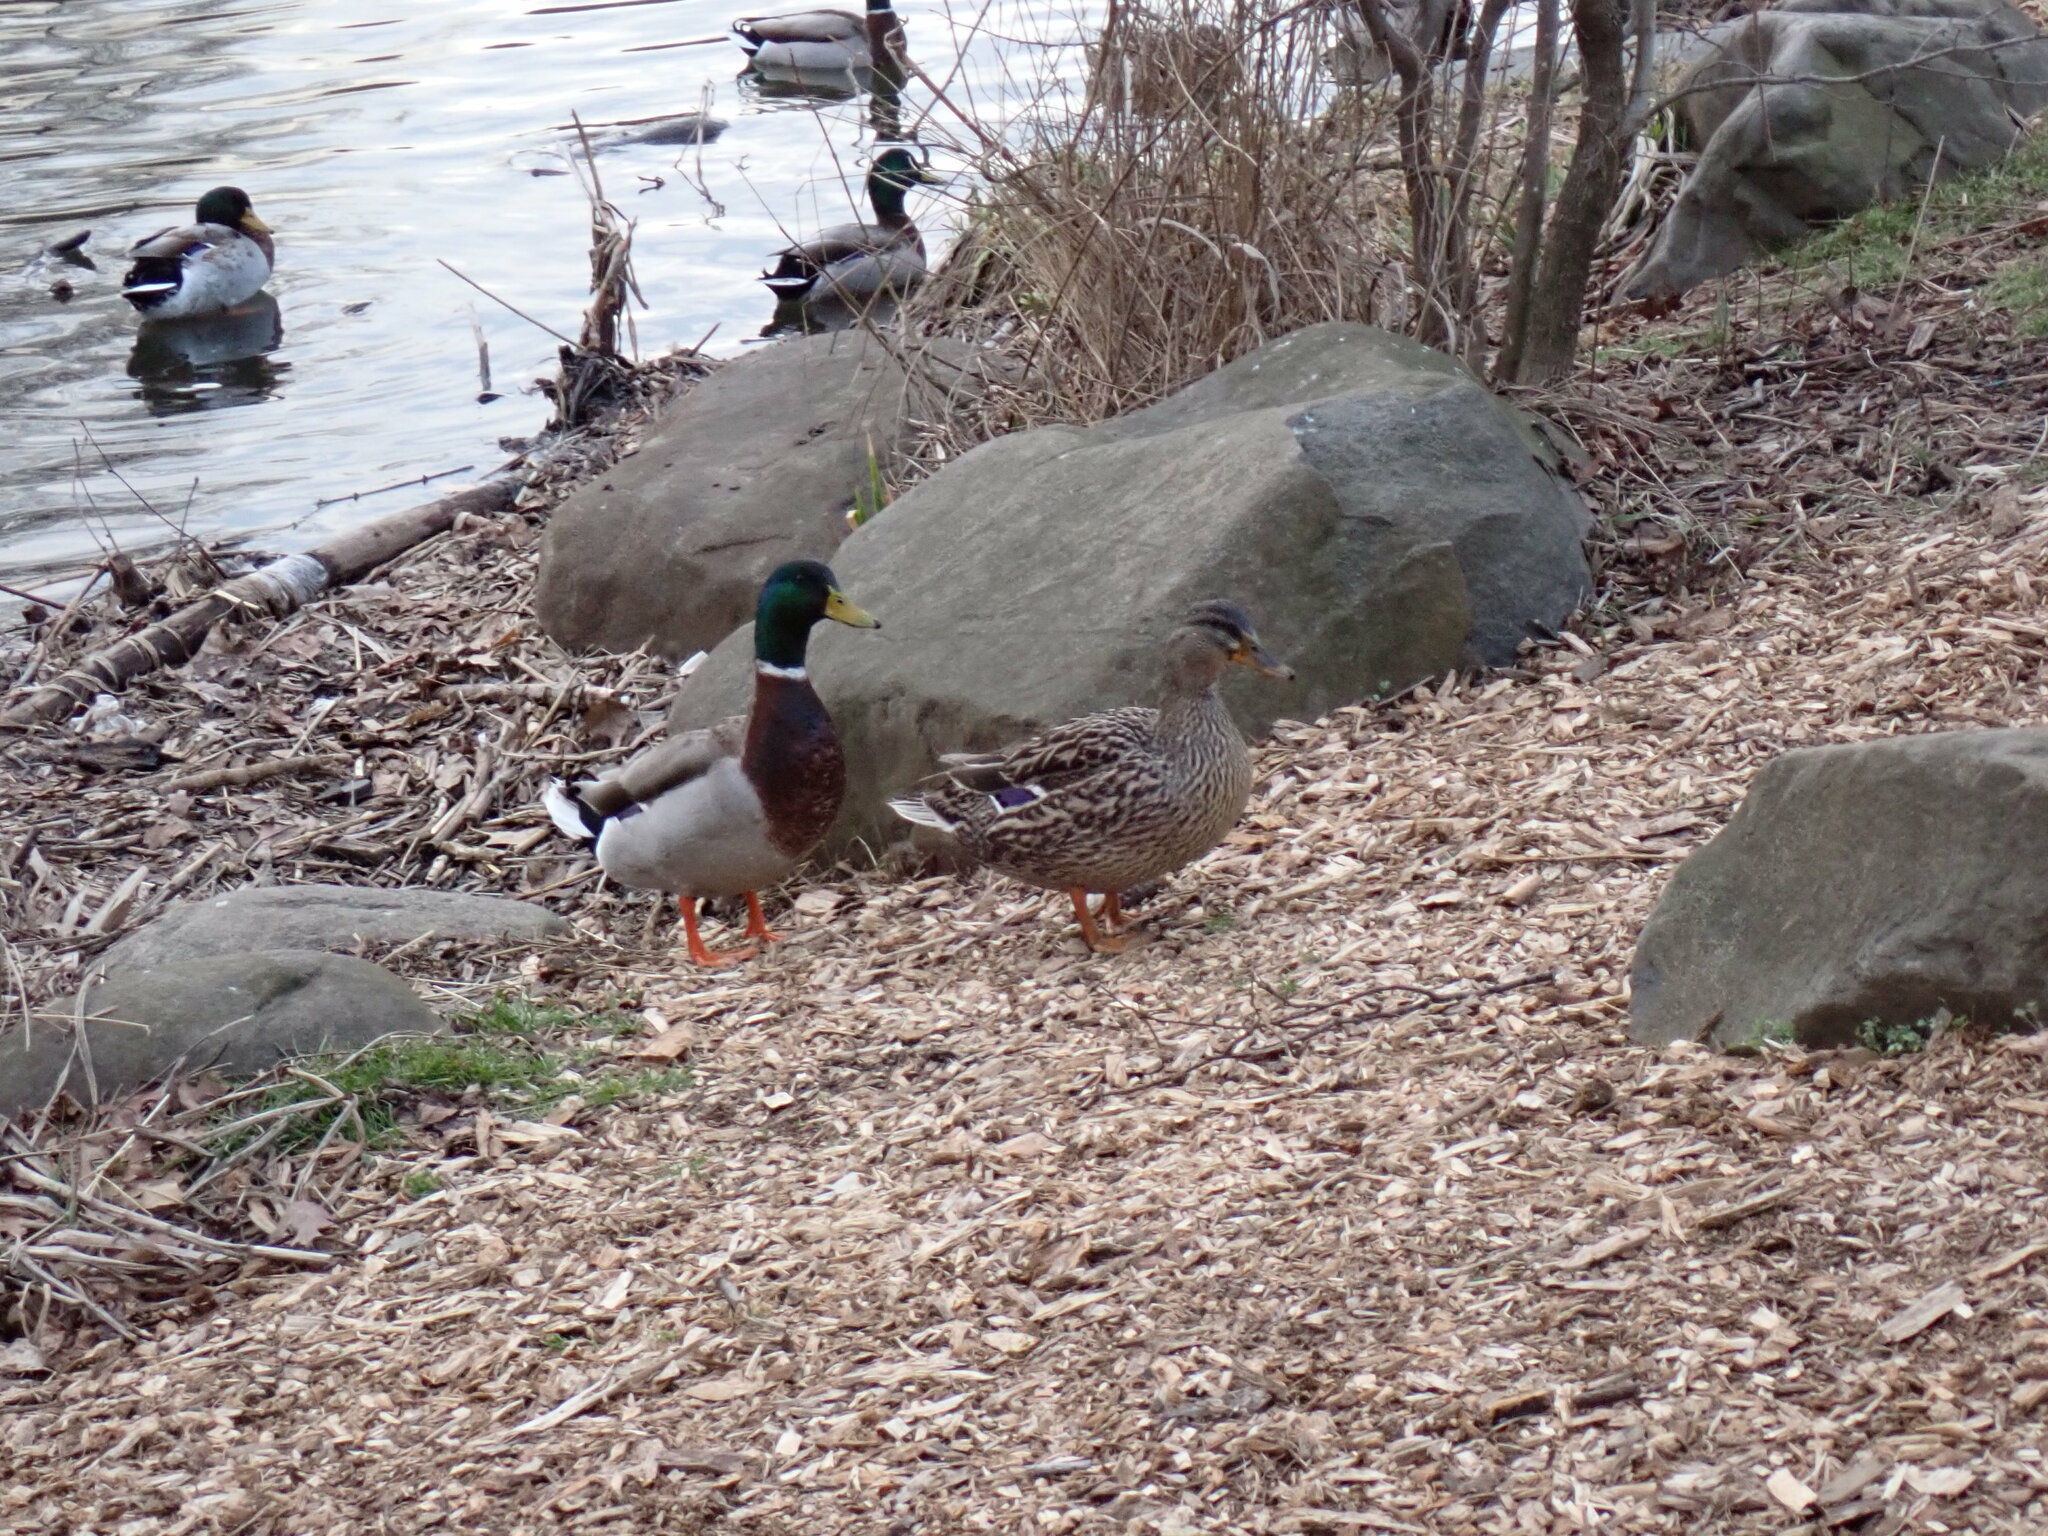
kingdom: Animalia
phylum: Chordata
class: Aves
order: Anseriformes
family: Anatidae
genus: Anas
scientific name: Anas platyrhynchos
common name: Mallard
